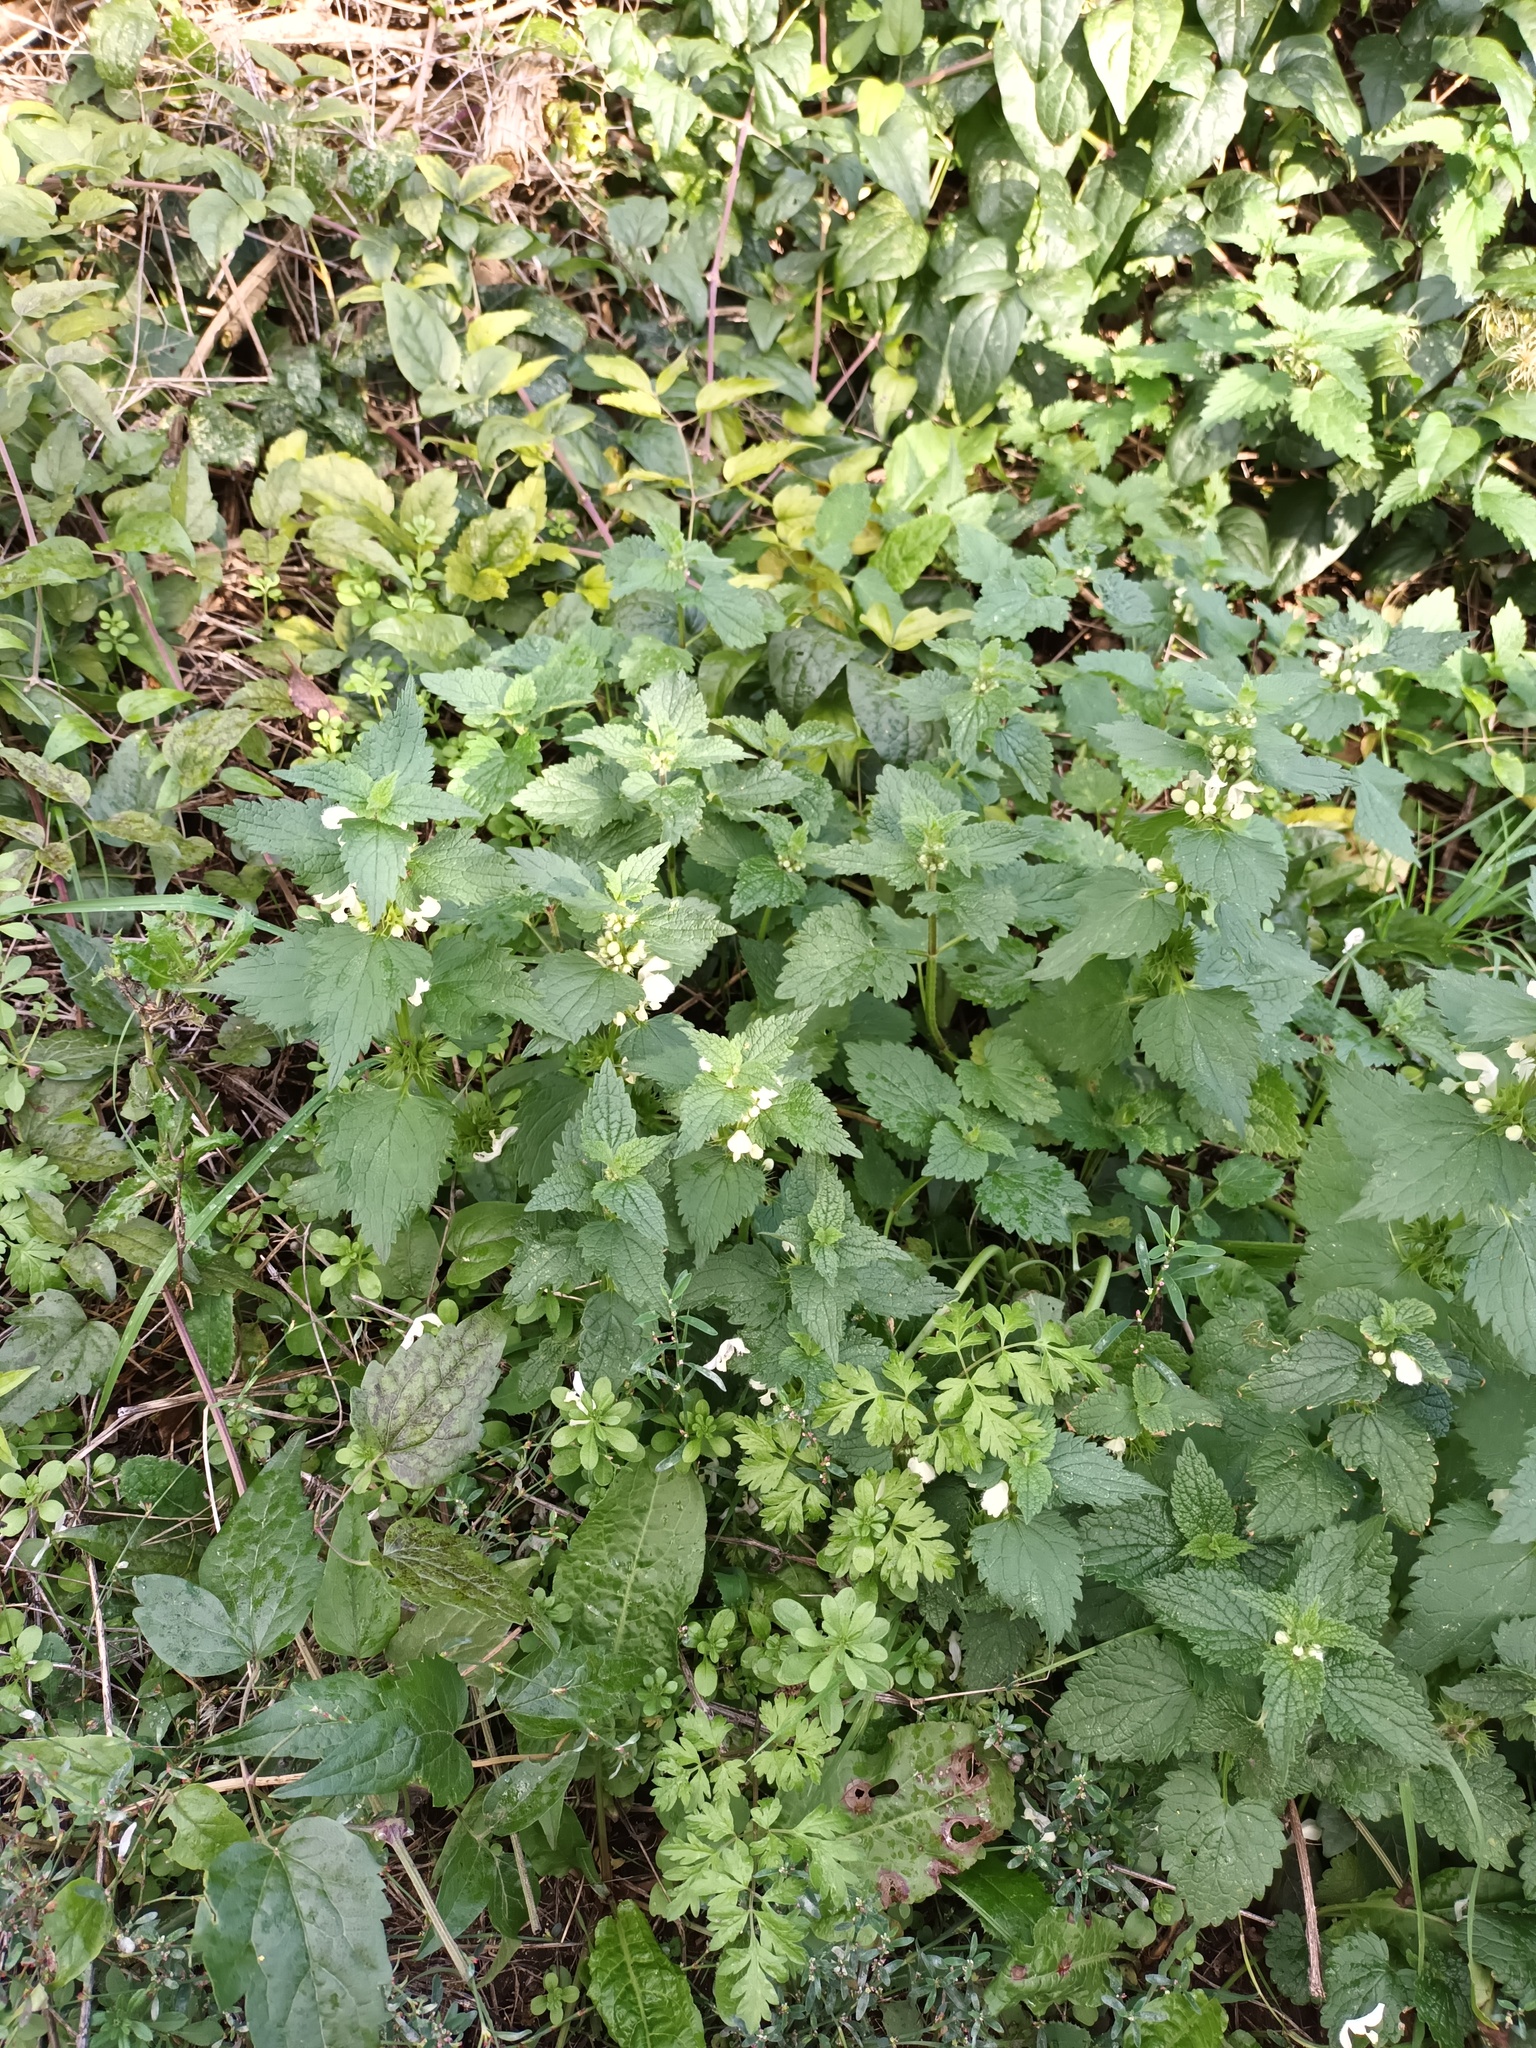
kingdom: Plantae
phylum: Tracheophyta
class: Magnoliopsida
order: Lamiales
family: Lamiaceae
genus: Lamium
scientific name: Lamium album
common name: White dead-nettle
